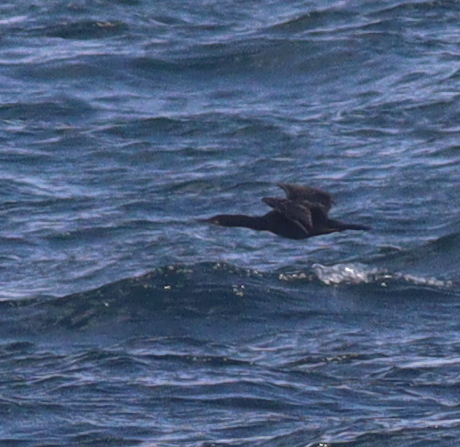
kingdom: Animalia
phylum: Chordata
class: Aves
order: Suliformes
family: Phalacrocoracidae
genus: Phalacrocorax
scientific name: Phalacrocorax aristotelis
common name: European shag
